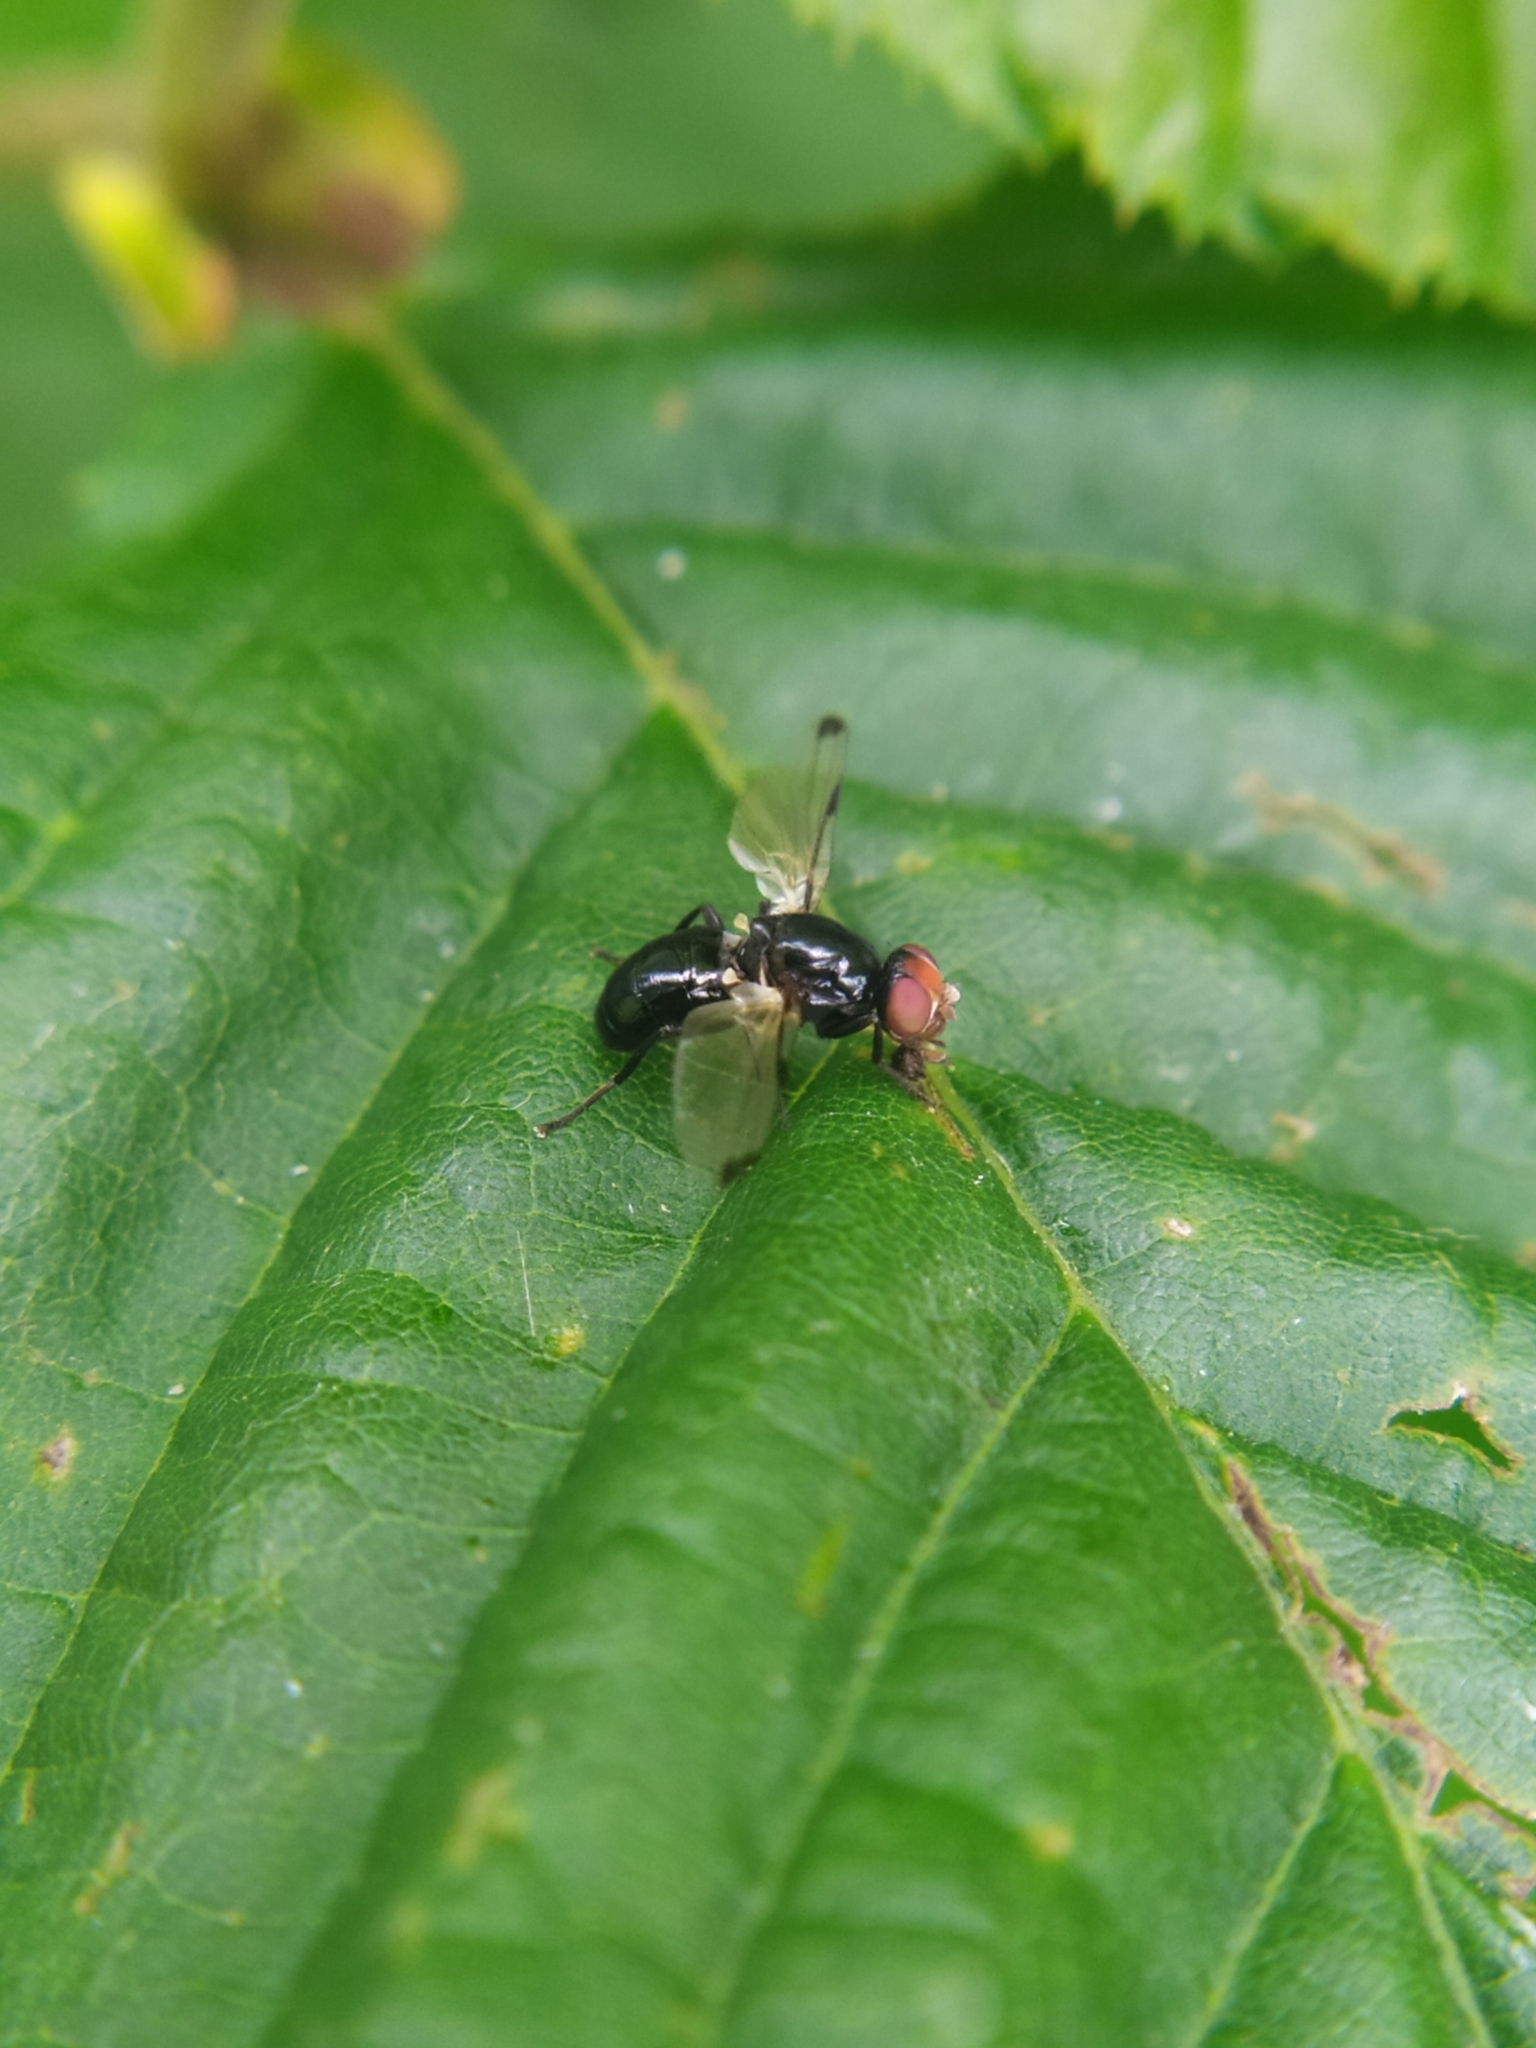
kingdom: Animalia
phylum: Arthropoda
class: Insecta
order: Diptera
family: Ulidiidae
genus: Seioptera
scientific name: Seioptera vibrans
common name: Dark-tipped wingwaver
